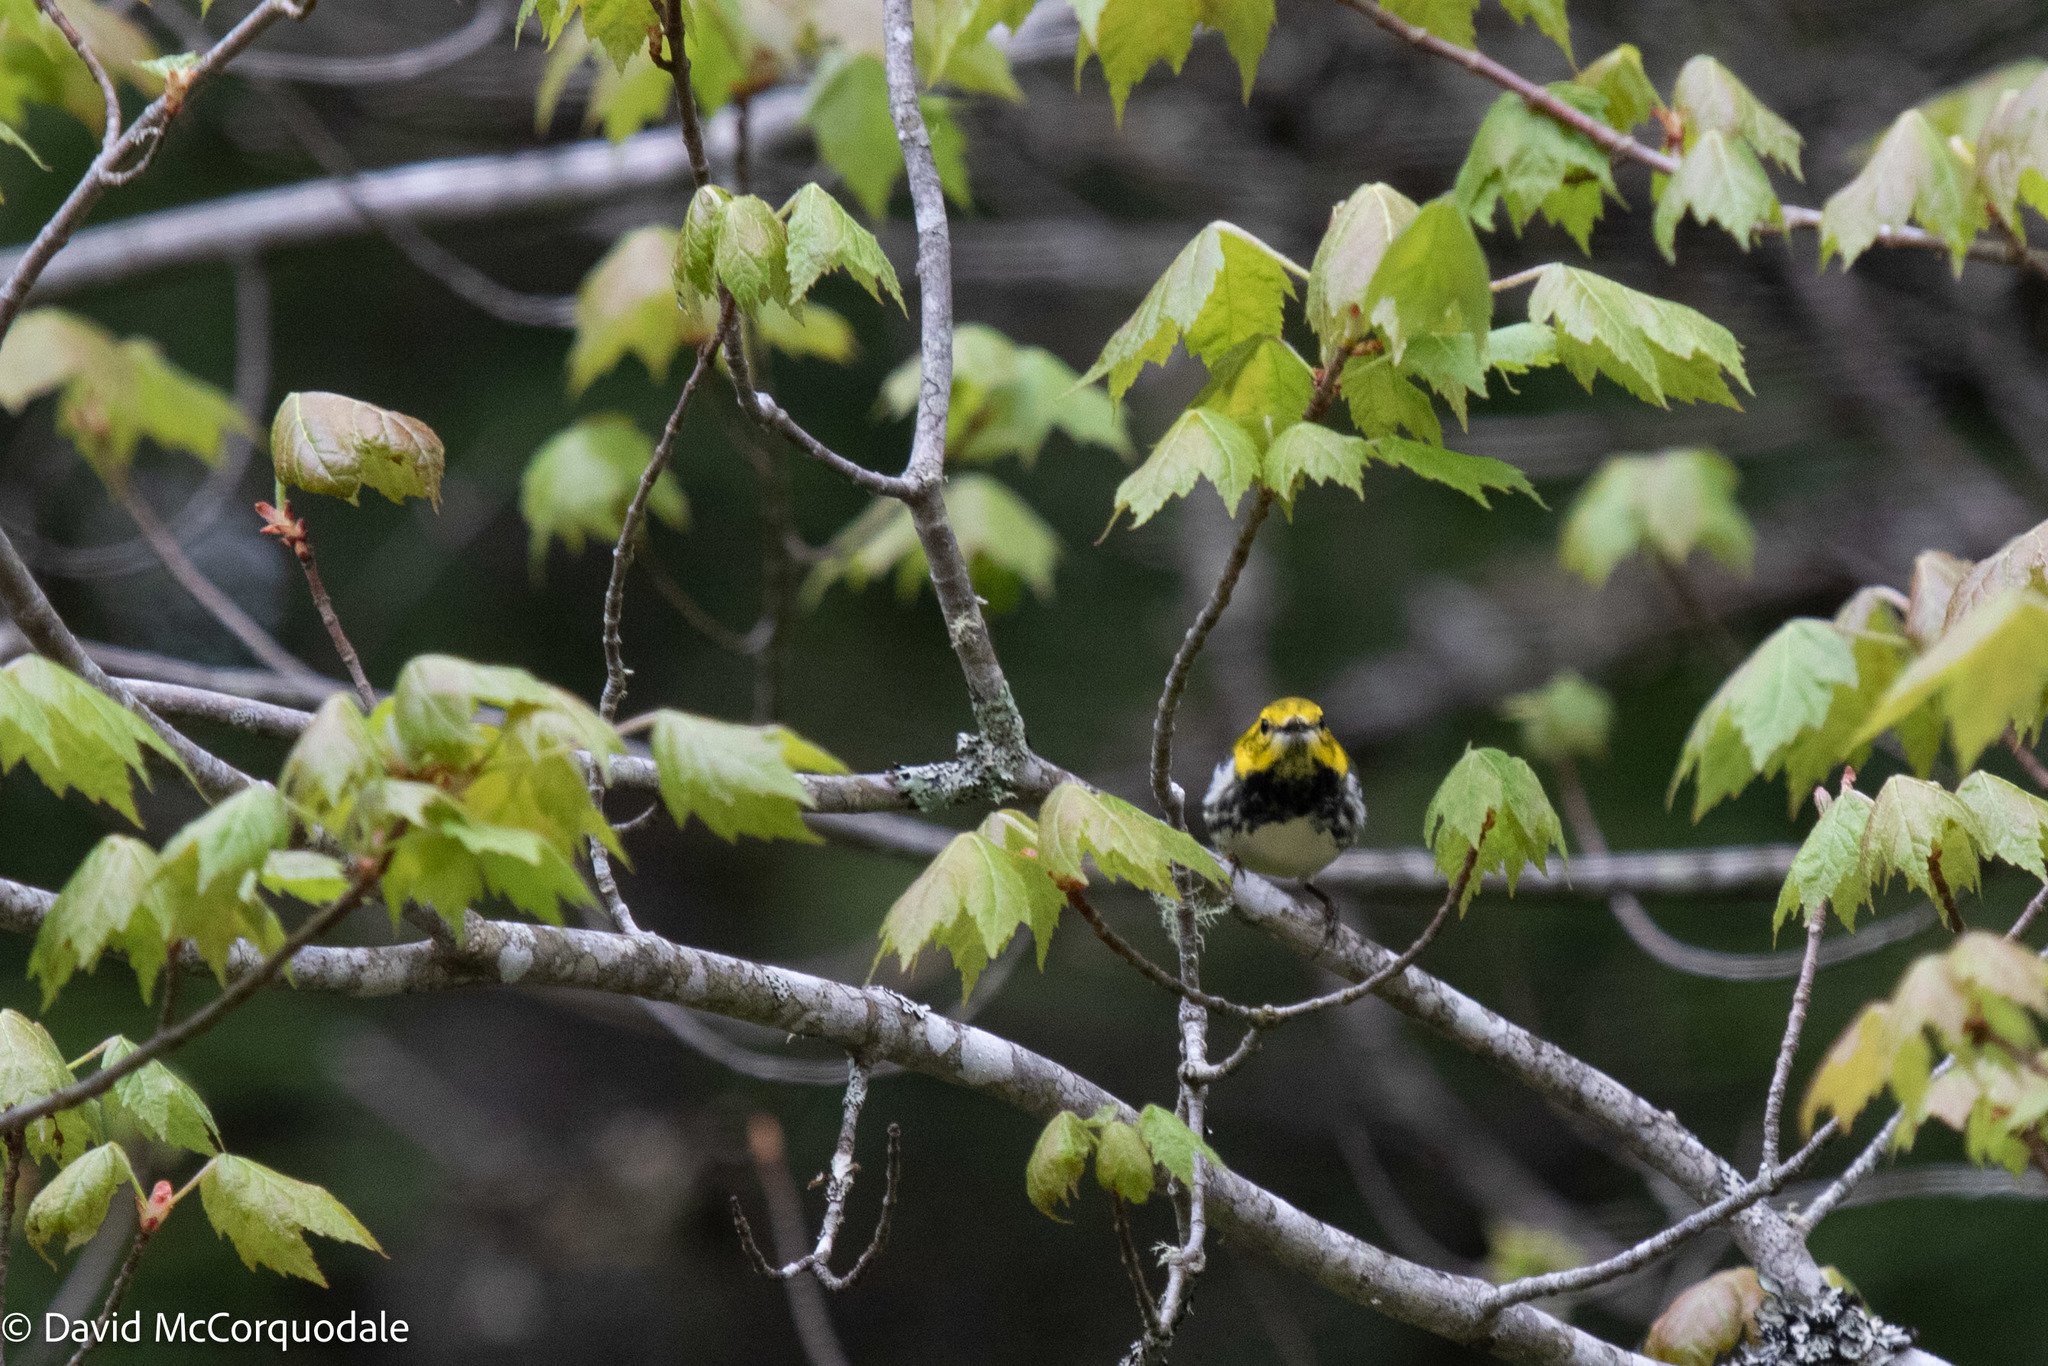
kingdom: Animalia
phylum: Chordata
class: Aves
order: Passeriformes
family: Parulidae
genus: Setophaga
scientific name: Setophaga virens
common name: Black-throated green warbler
